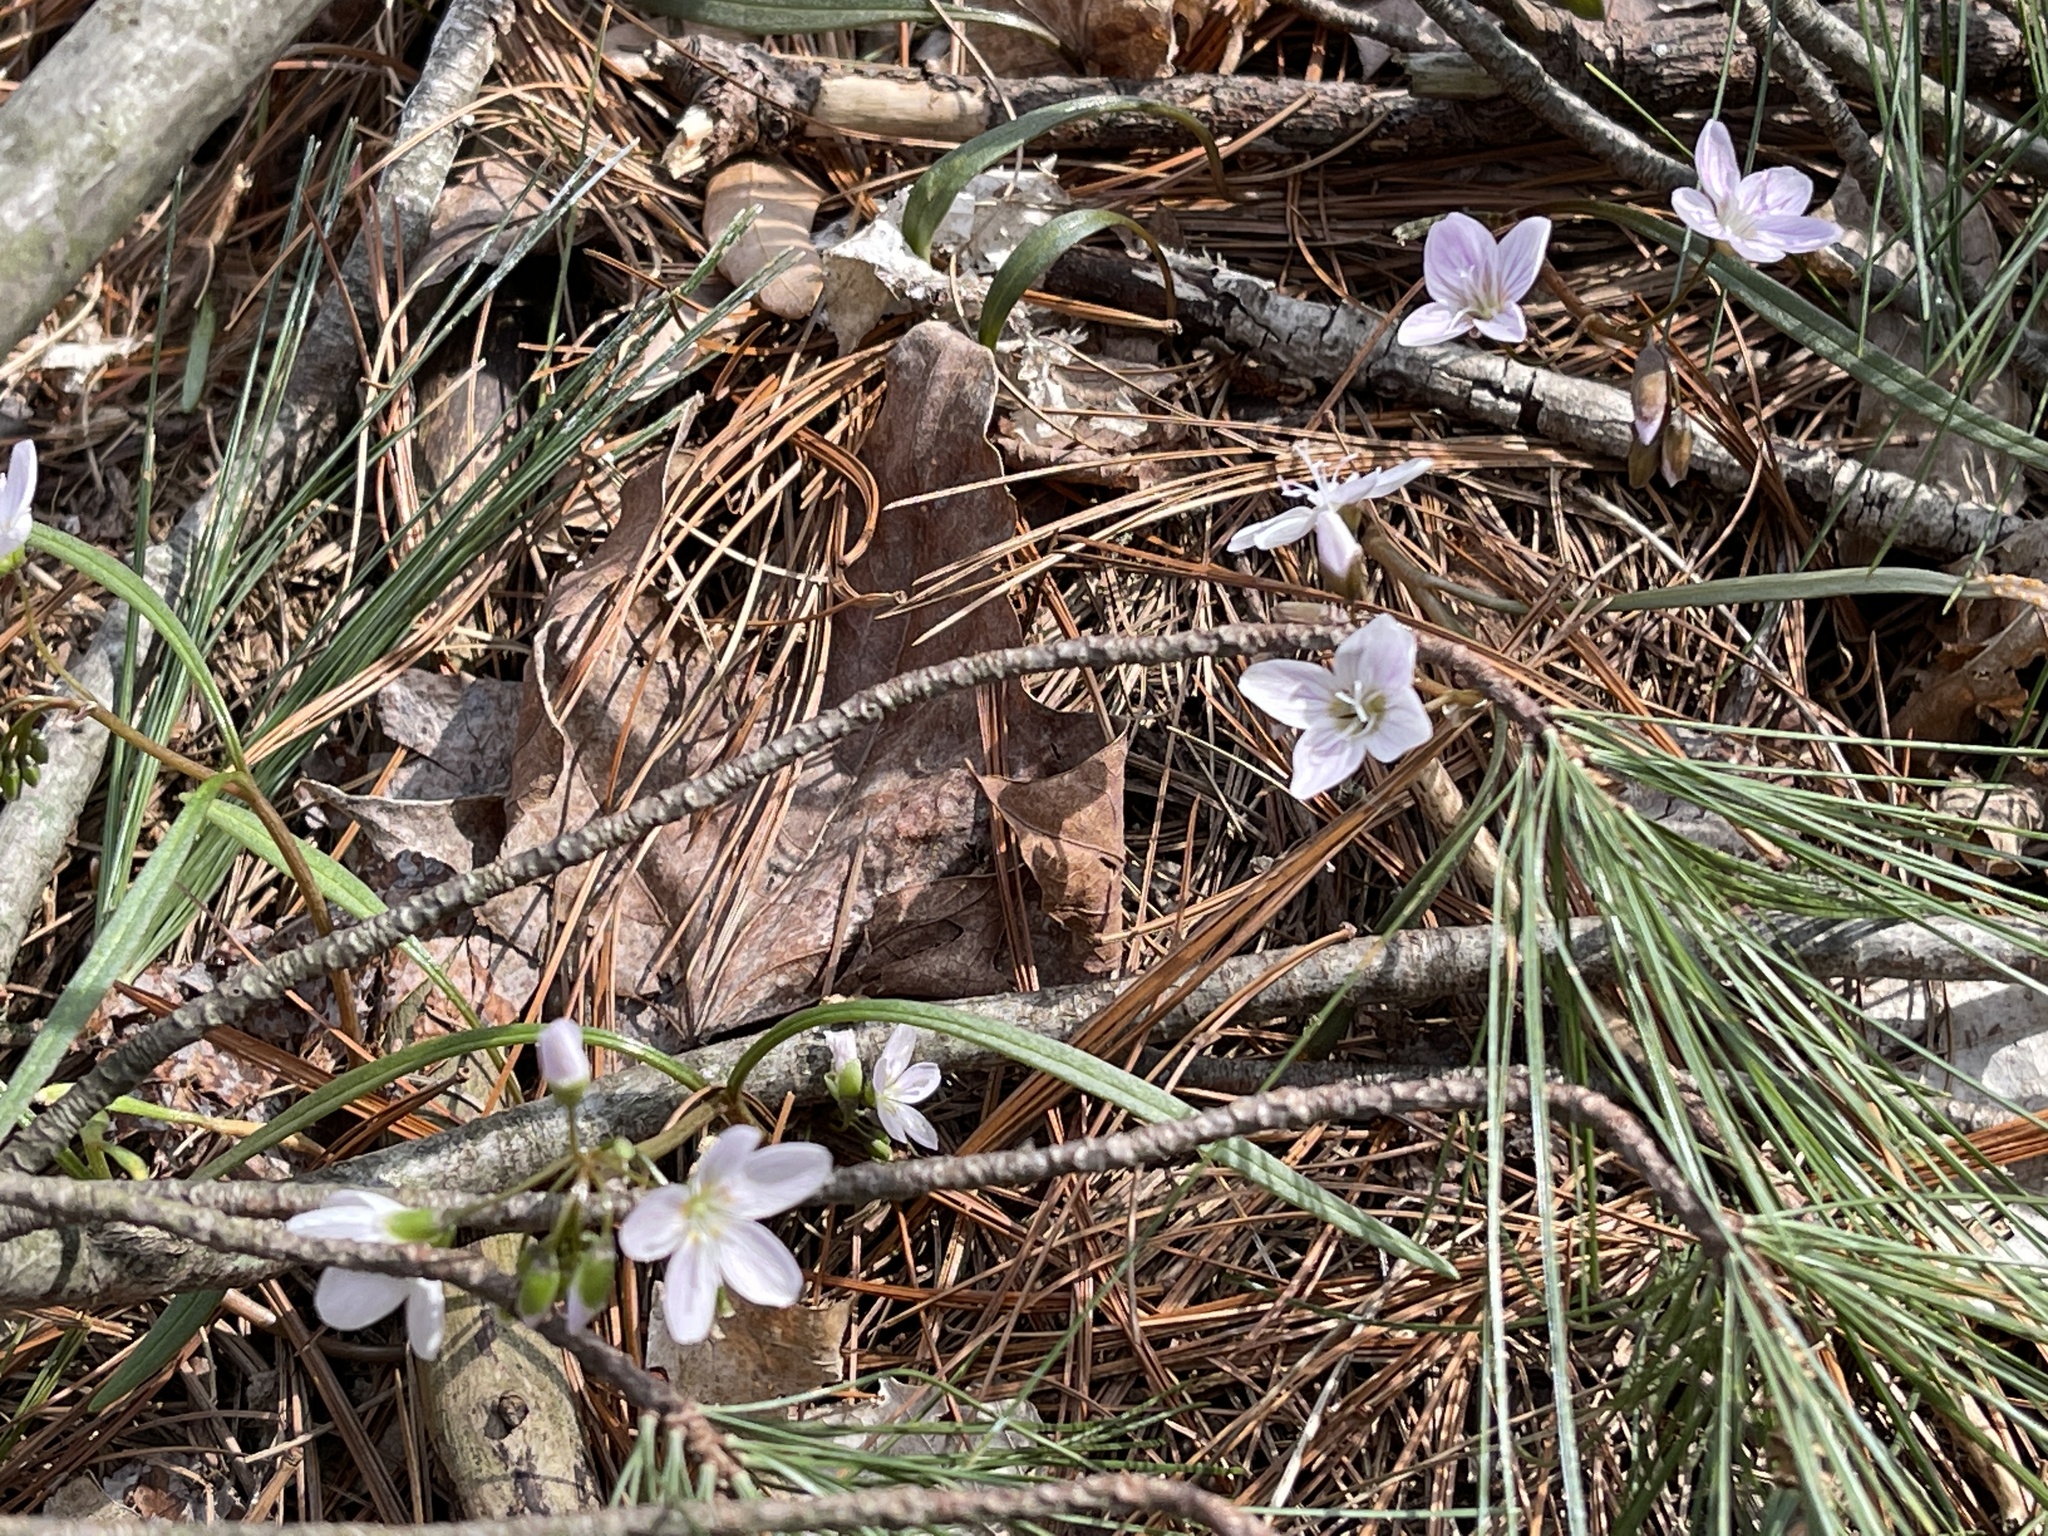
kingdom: Plantae
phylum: Tracheophyta
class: Magnoliopsida
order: Caryophyllales
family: Montiaceae
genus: Claytonia
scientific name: Claytonia virginica
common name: Virginia springbeauty
